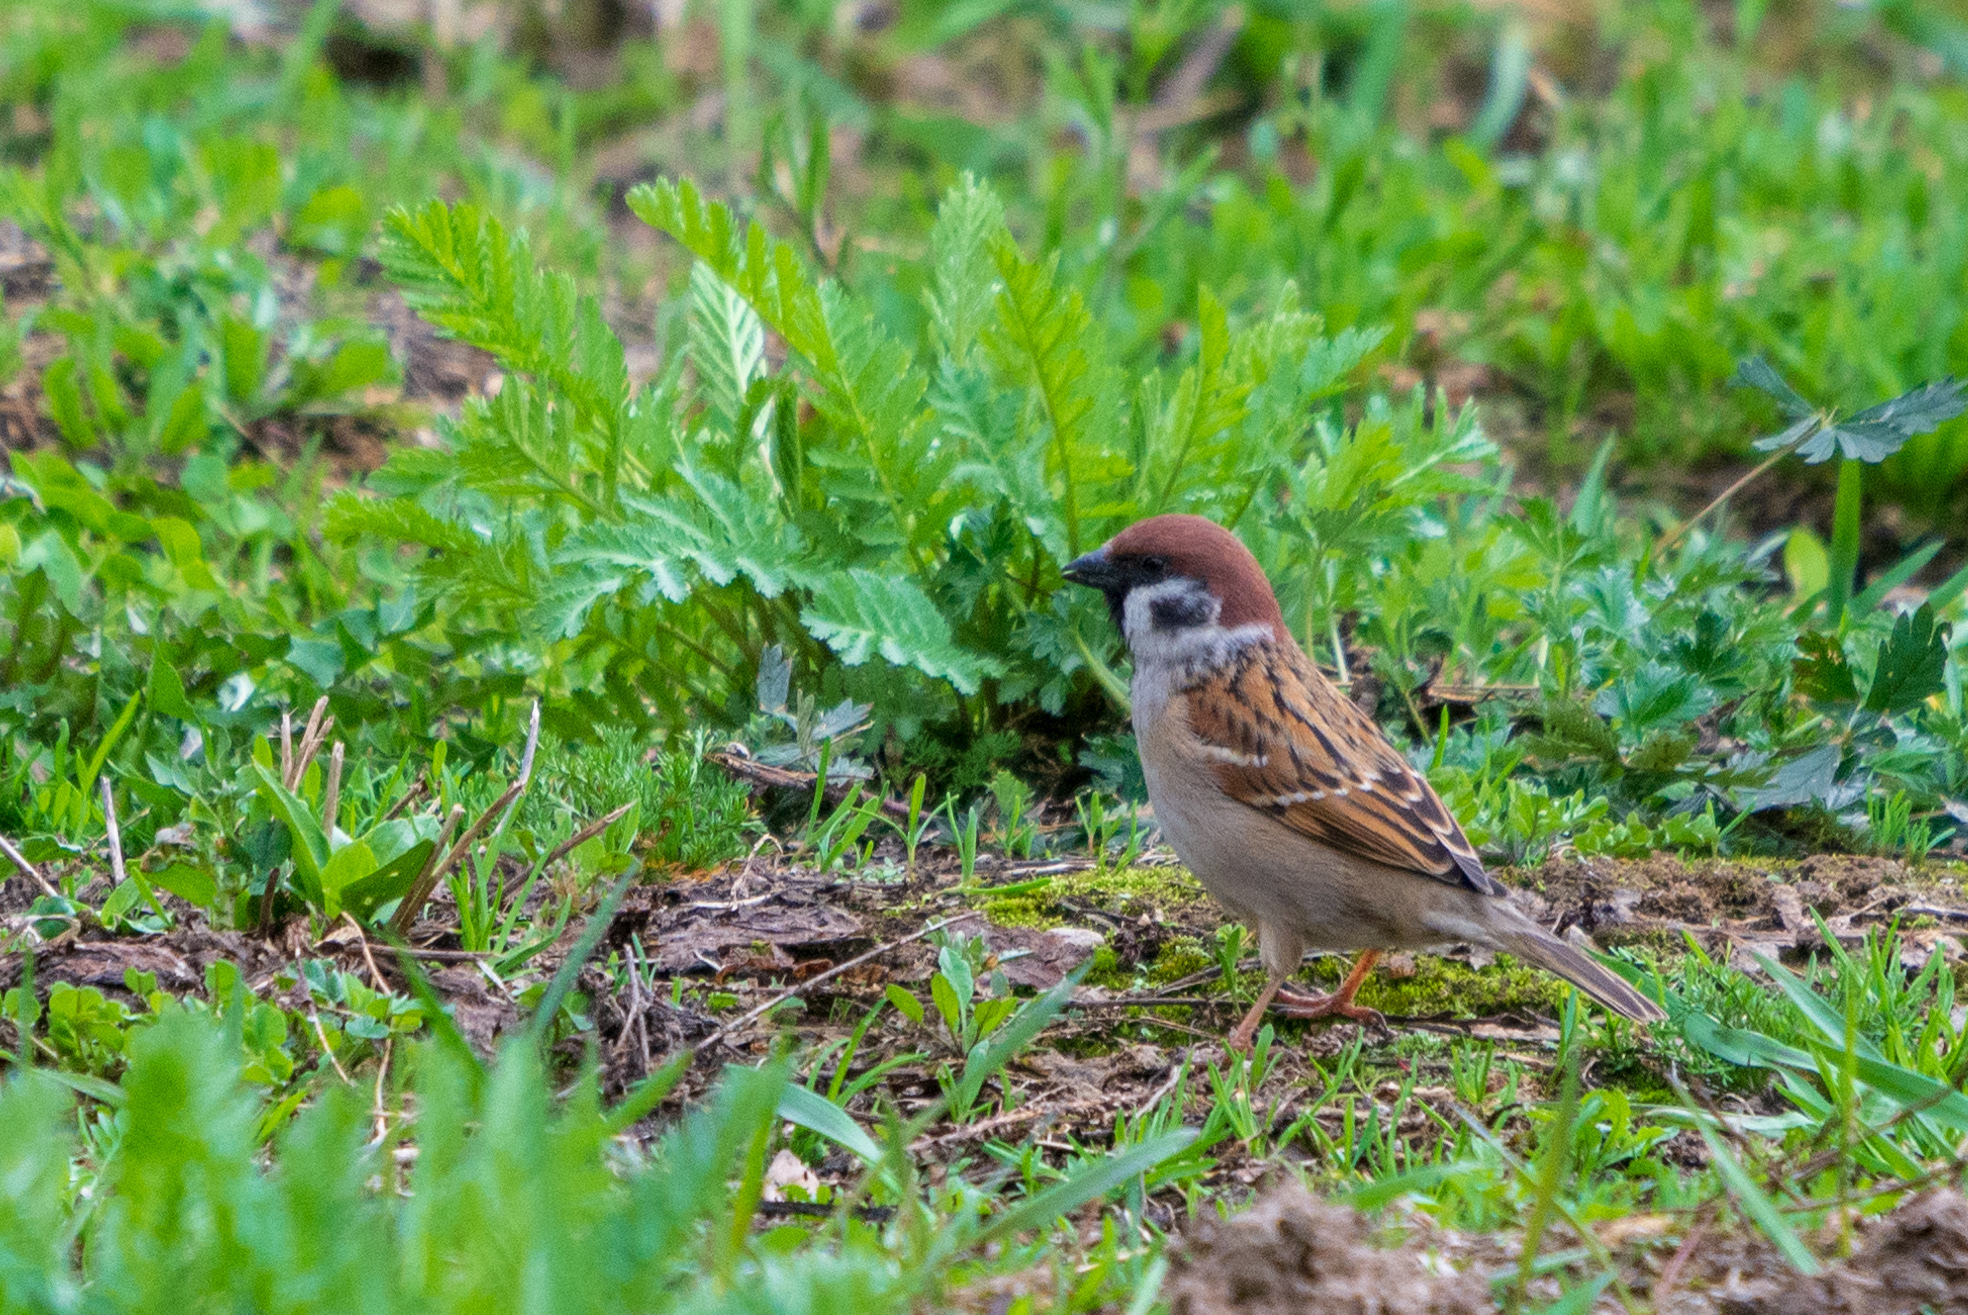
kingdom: Animalia
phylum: Chordata
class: Aves
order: Passeriformes
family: Passeridae
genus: Passer
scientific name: Passer montanus
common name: Eurasian tree sparrow
